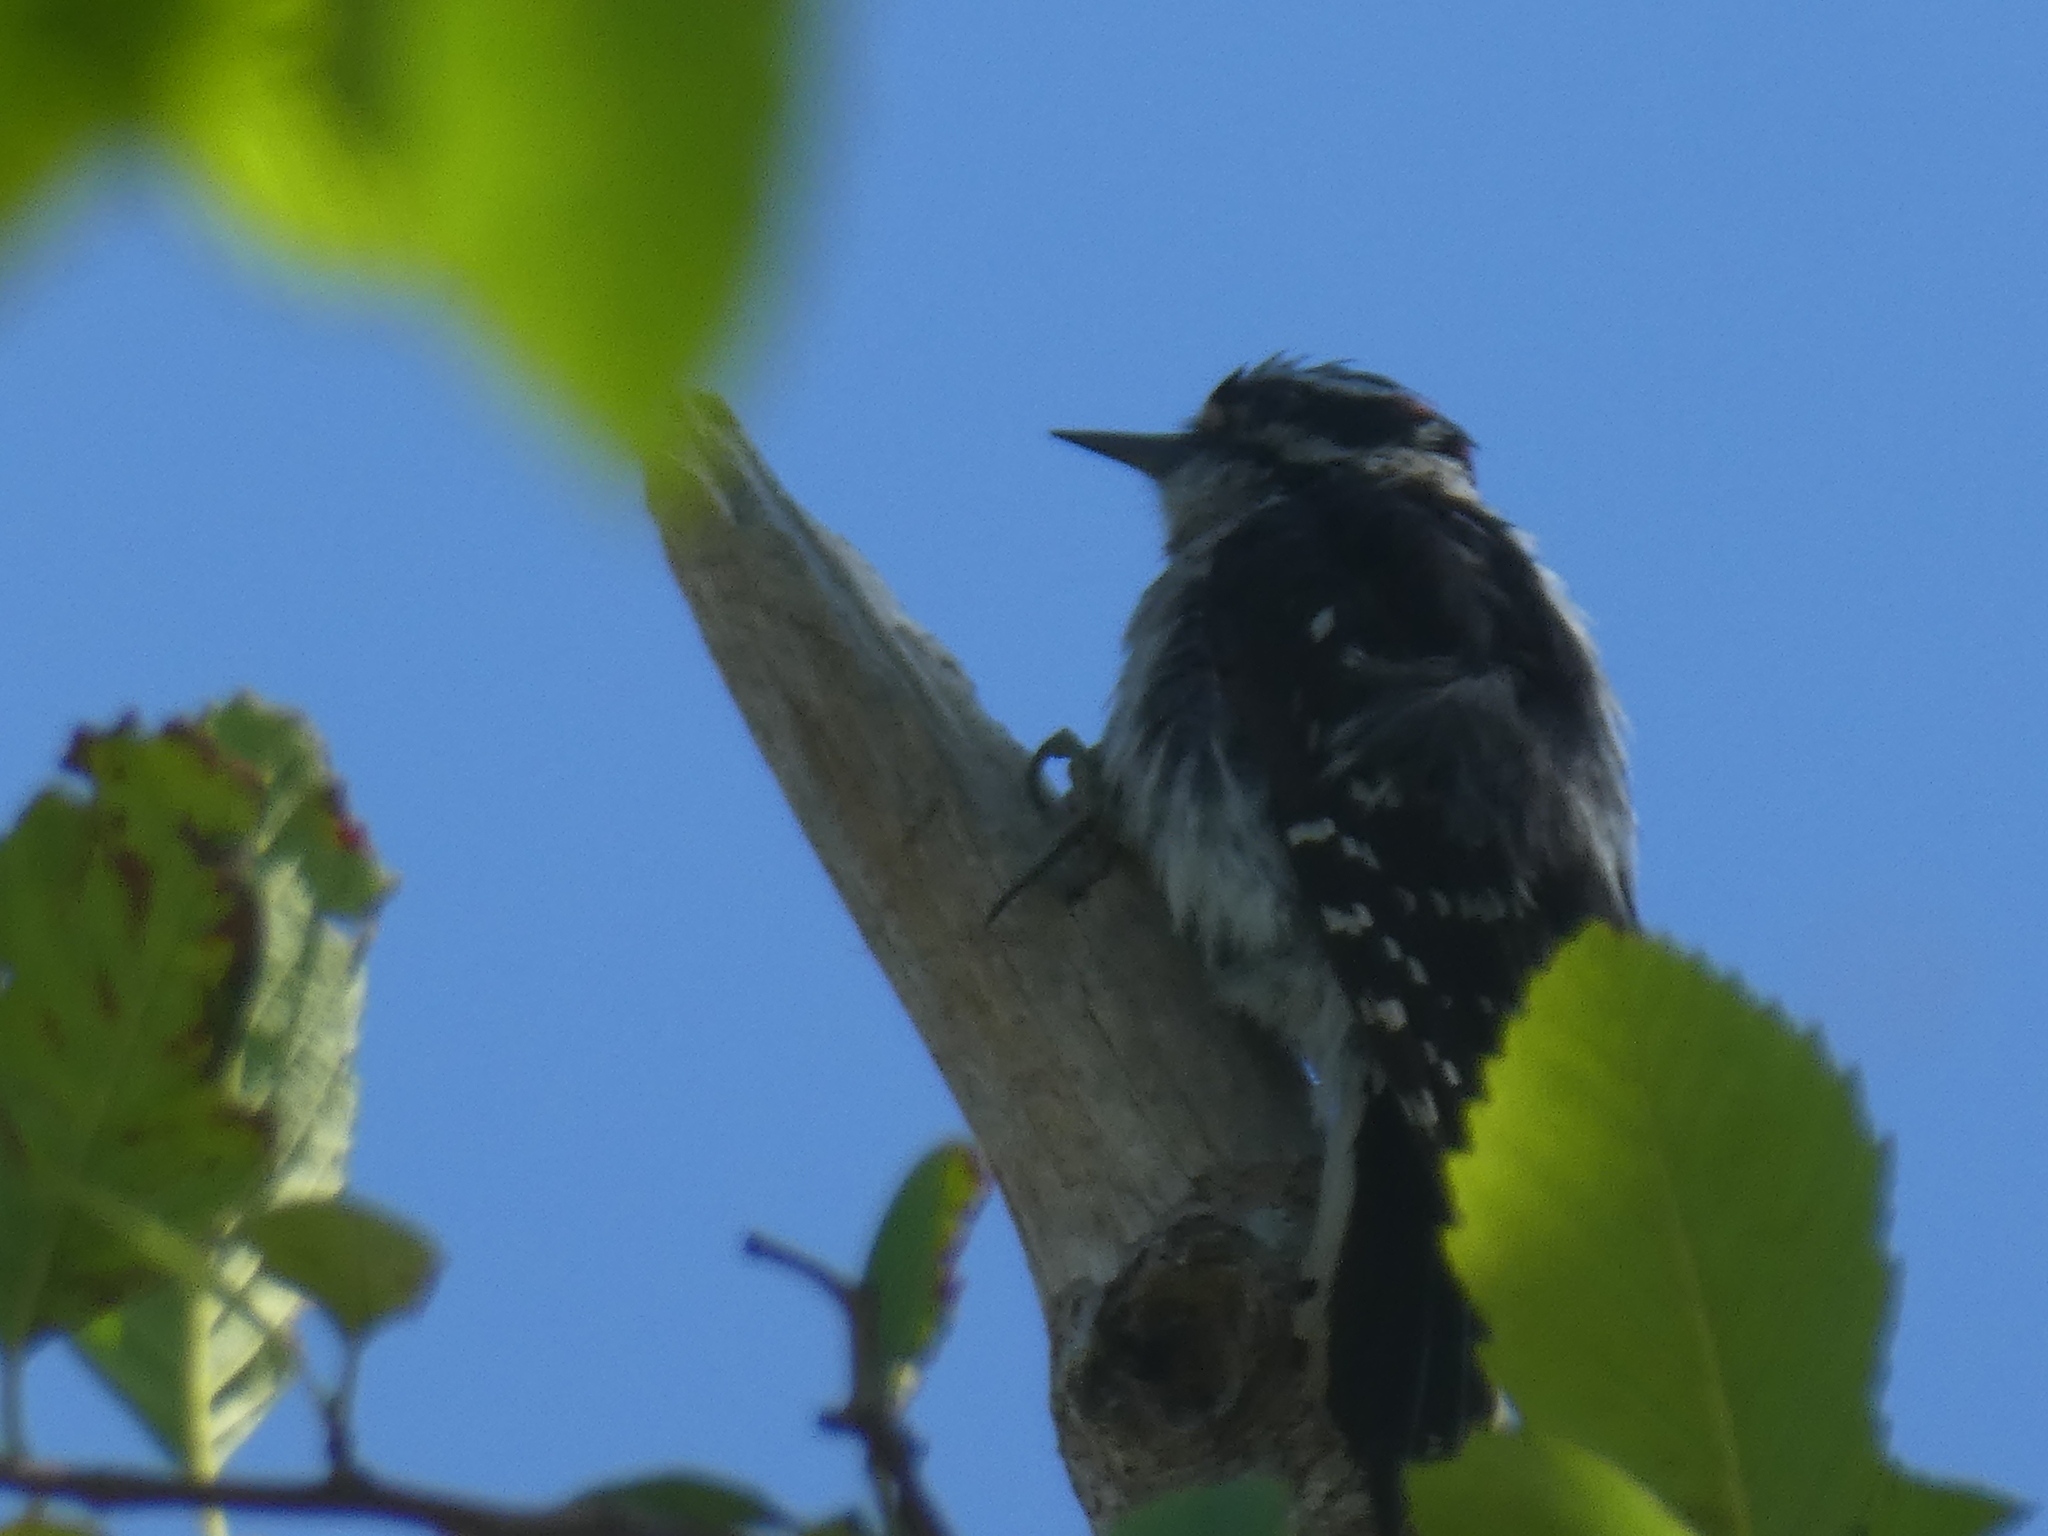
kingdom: Animalia
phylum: Chordata
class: Aves
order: Piciformes
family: Picidae
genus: Dryobates
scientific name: Dryobates pubescens
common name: Downy woodpecker
